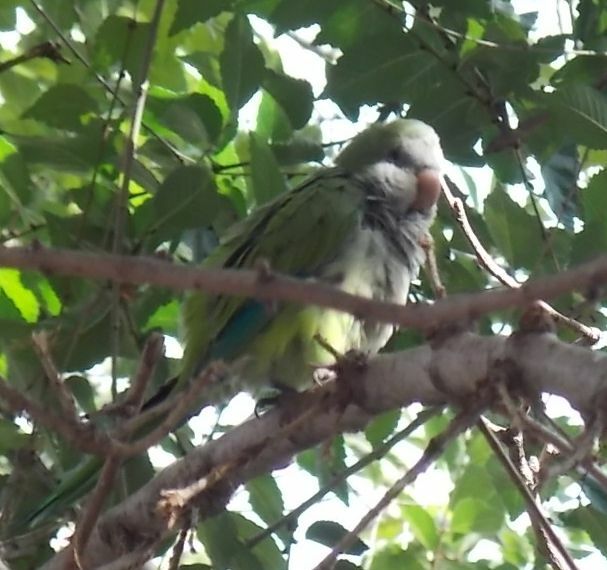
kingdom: Animalia
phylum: Chordata
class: Aves
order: Psittaciformes
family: Psittacidae
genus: Myiopsitta
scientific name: Myiopsitta monachus
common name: Monk parakeet
